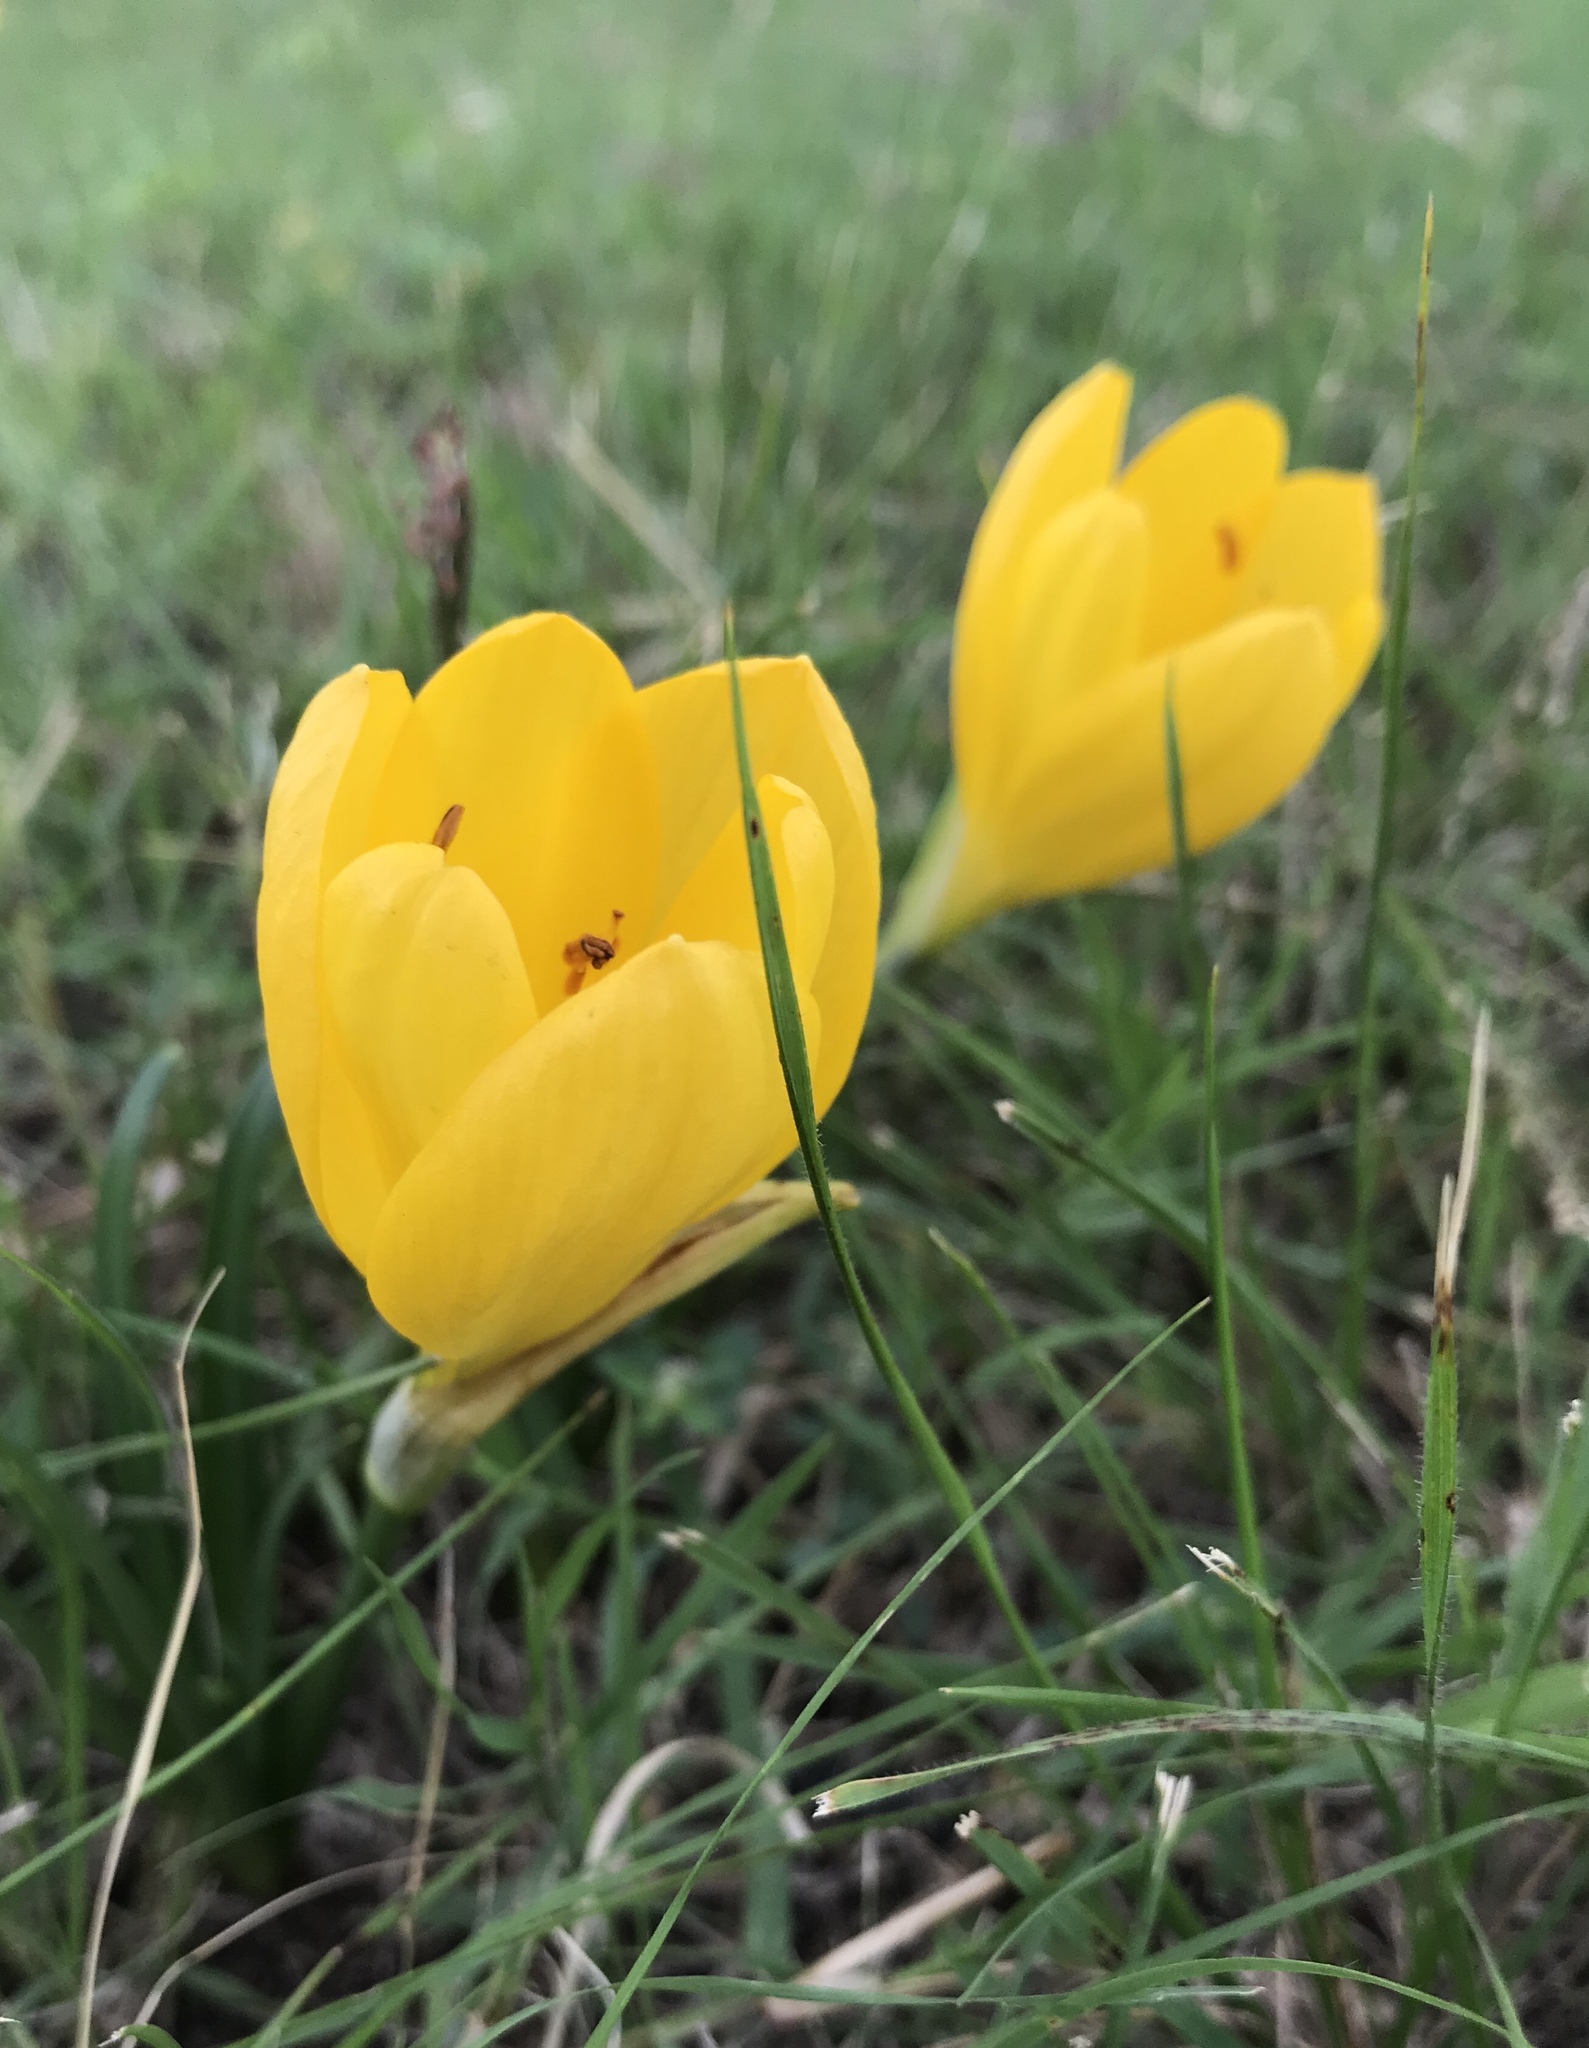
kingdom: Plantae
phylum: Tracheophyta
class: Liliopsida
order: Asparagales
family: Amaryllidaceae
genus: Sternbergia
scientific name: Sternbergia lutea
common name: Winter daffodil
